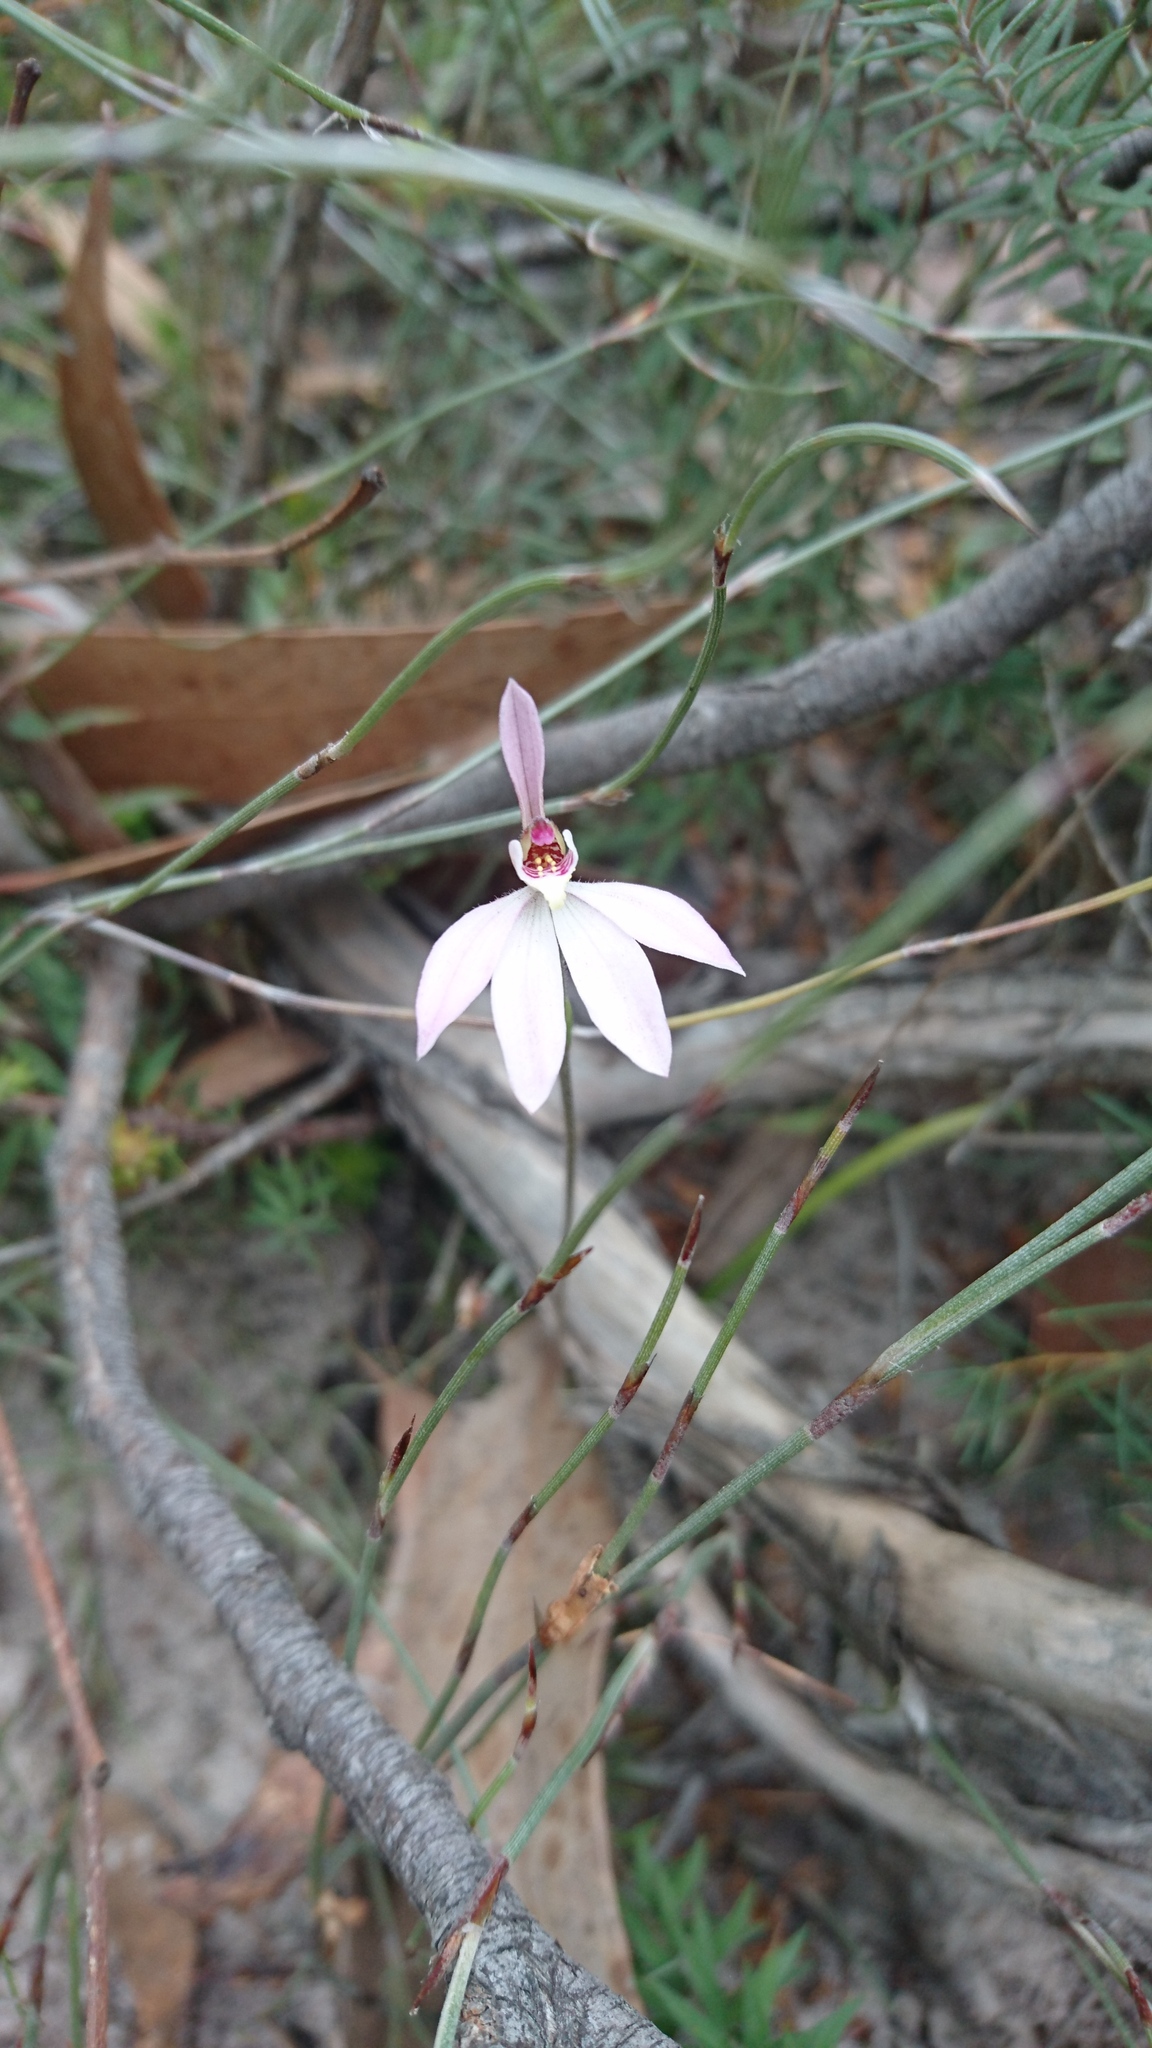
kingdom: Plantae
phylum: Tracheophyta
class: Liliopsida
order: Asparagales
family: Orchidaceae
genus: Caladenia
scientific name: Caladenia carnea
